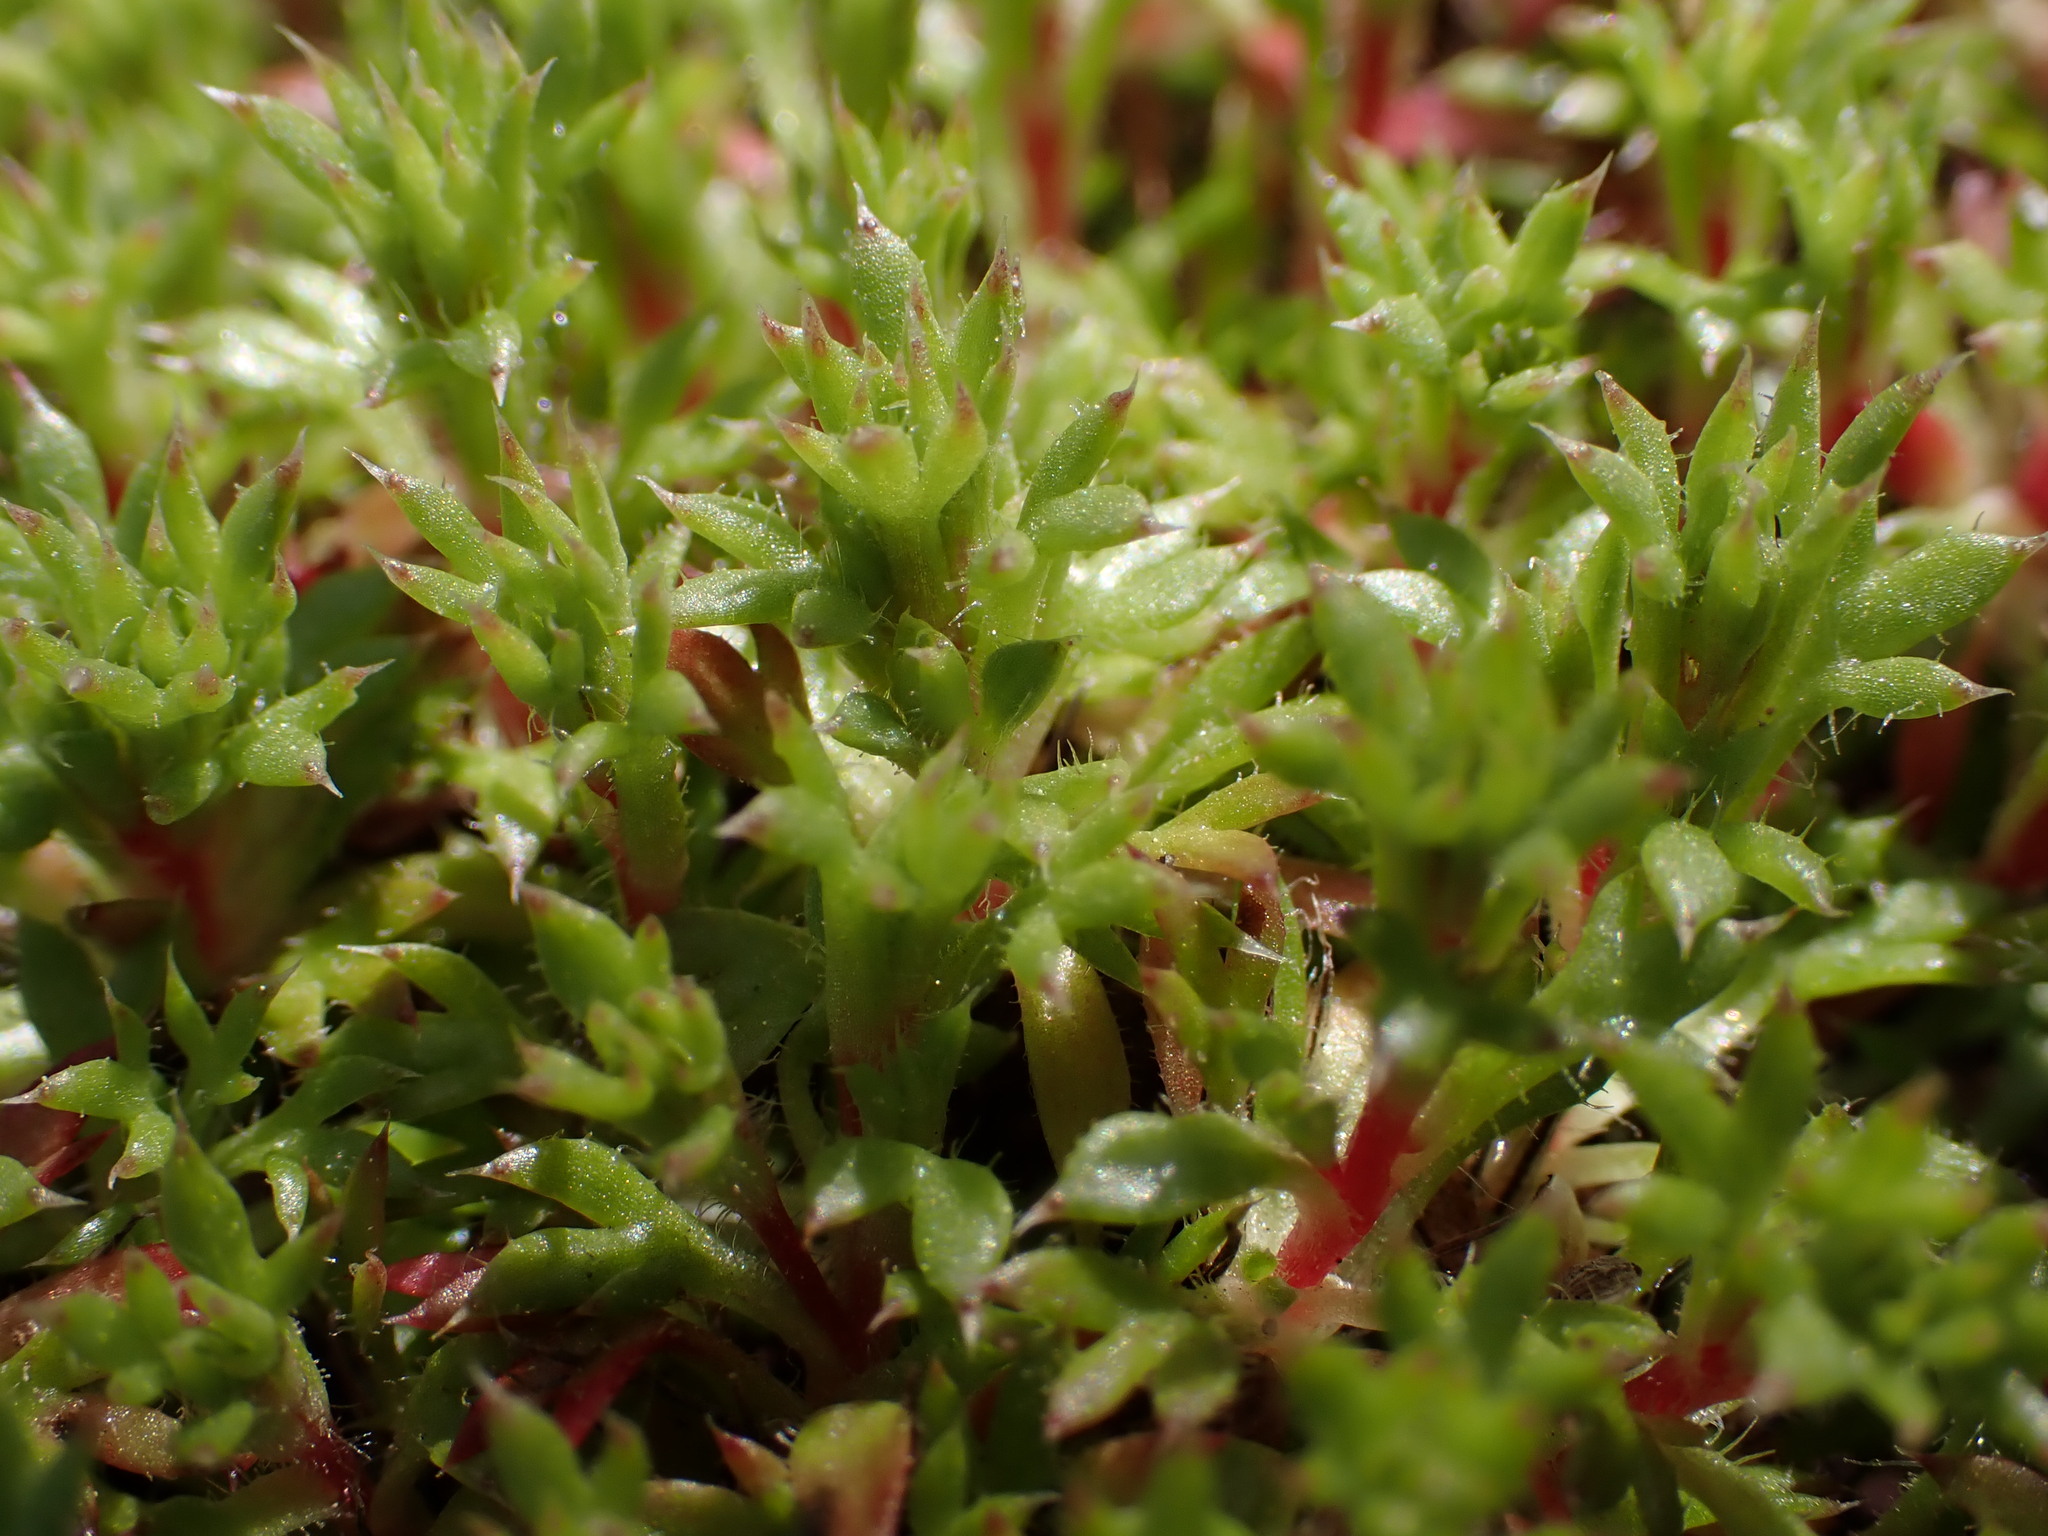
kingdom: Plantae
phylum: Tracheophyta
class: Magnoliopsida
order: Saxifragales
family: Saxifragaceae
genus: Saxifraga
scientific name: Saxifraga fragosoi
